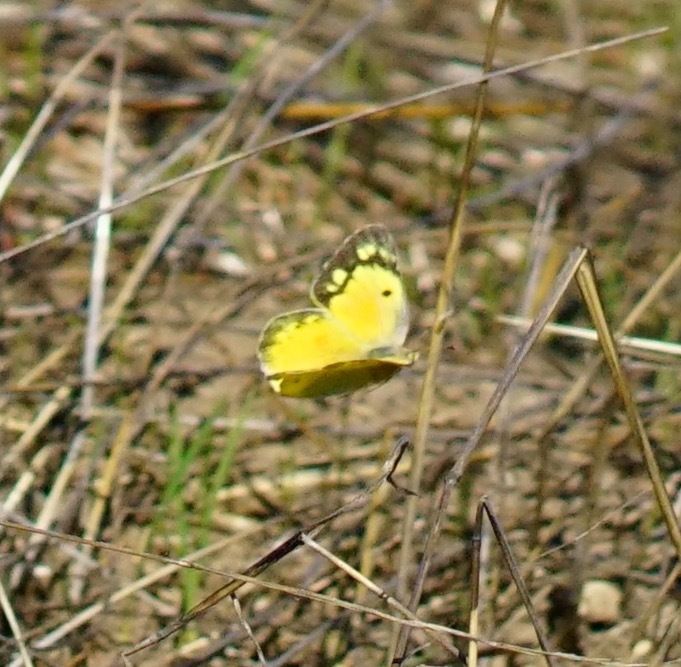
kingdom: Animalia
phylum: Arthropoda
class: Insecta
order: Lepidoptera
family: Pieridae
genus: Colias
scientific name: Colias eurytheme
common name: Alfalfa butterfly
